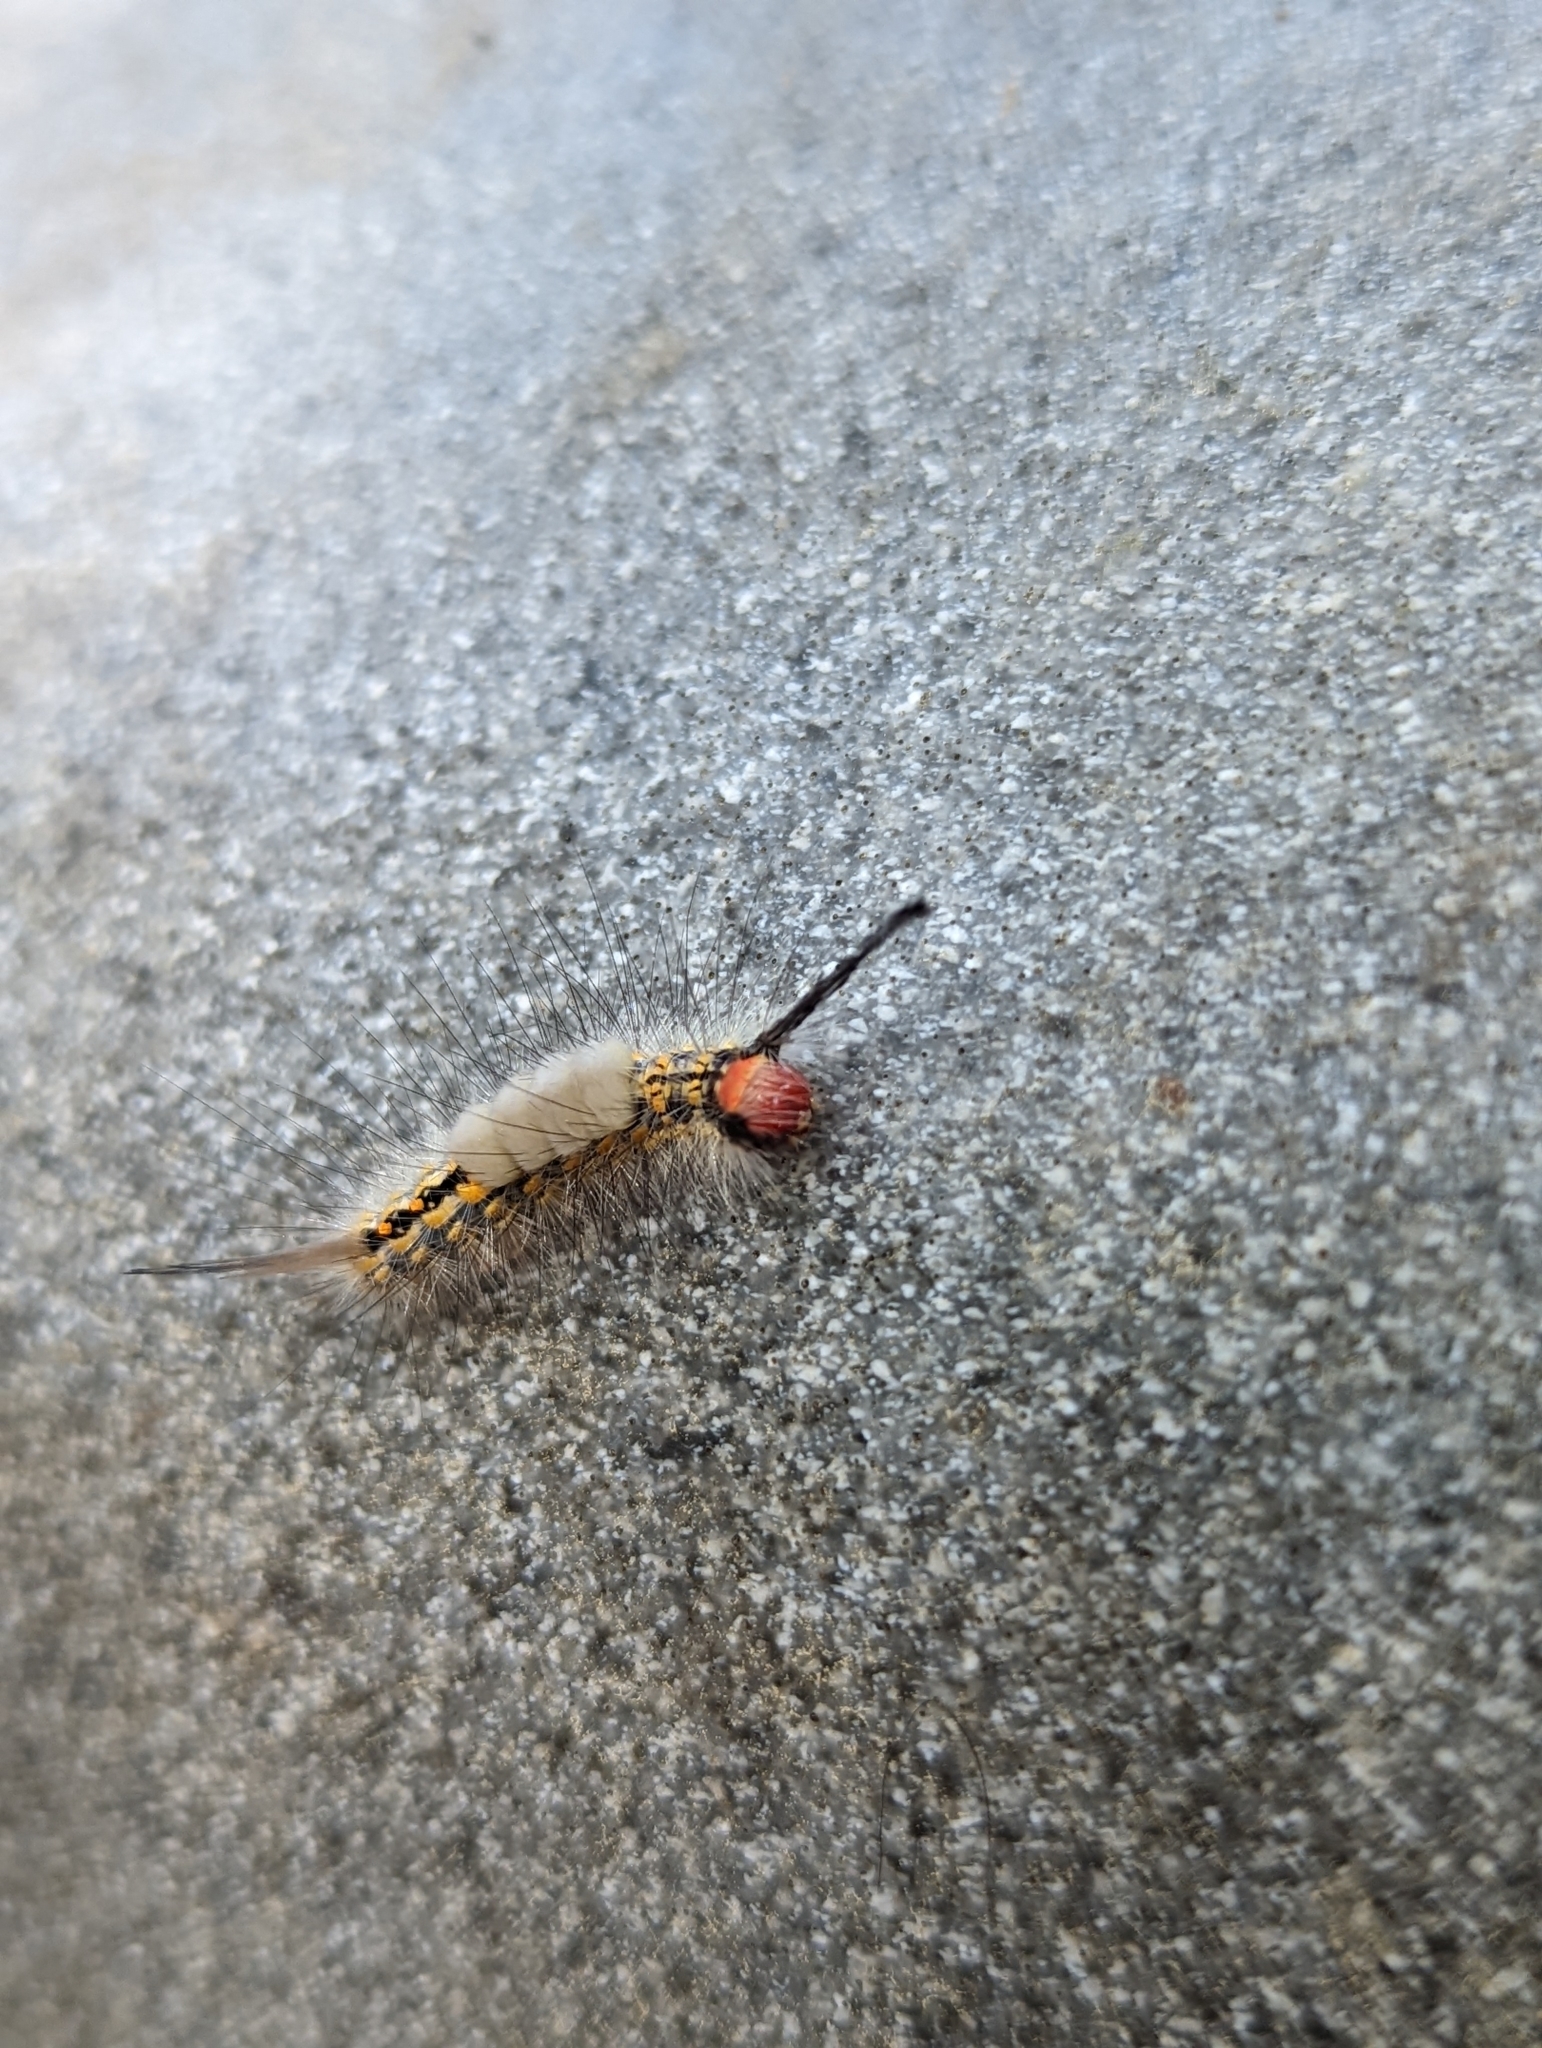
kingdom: Animalia
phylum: Arthropoda
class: Insecta
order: Lepidoptera
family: Erebidae
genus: Orgyia
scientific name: Orgyia detrita
